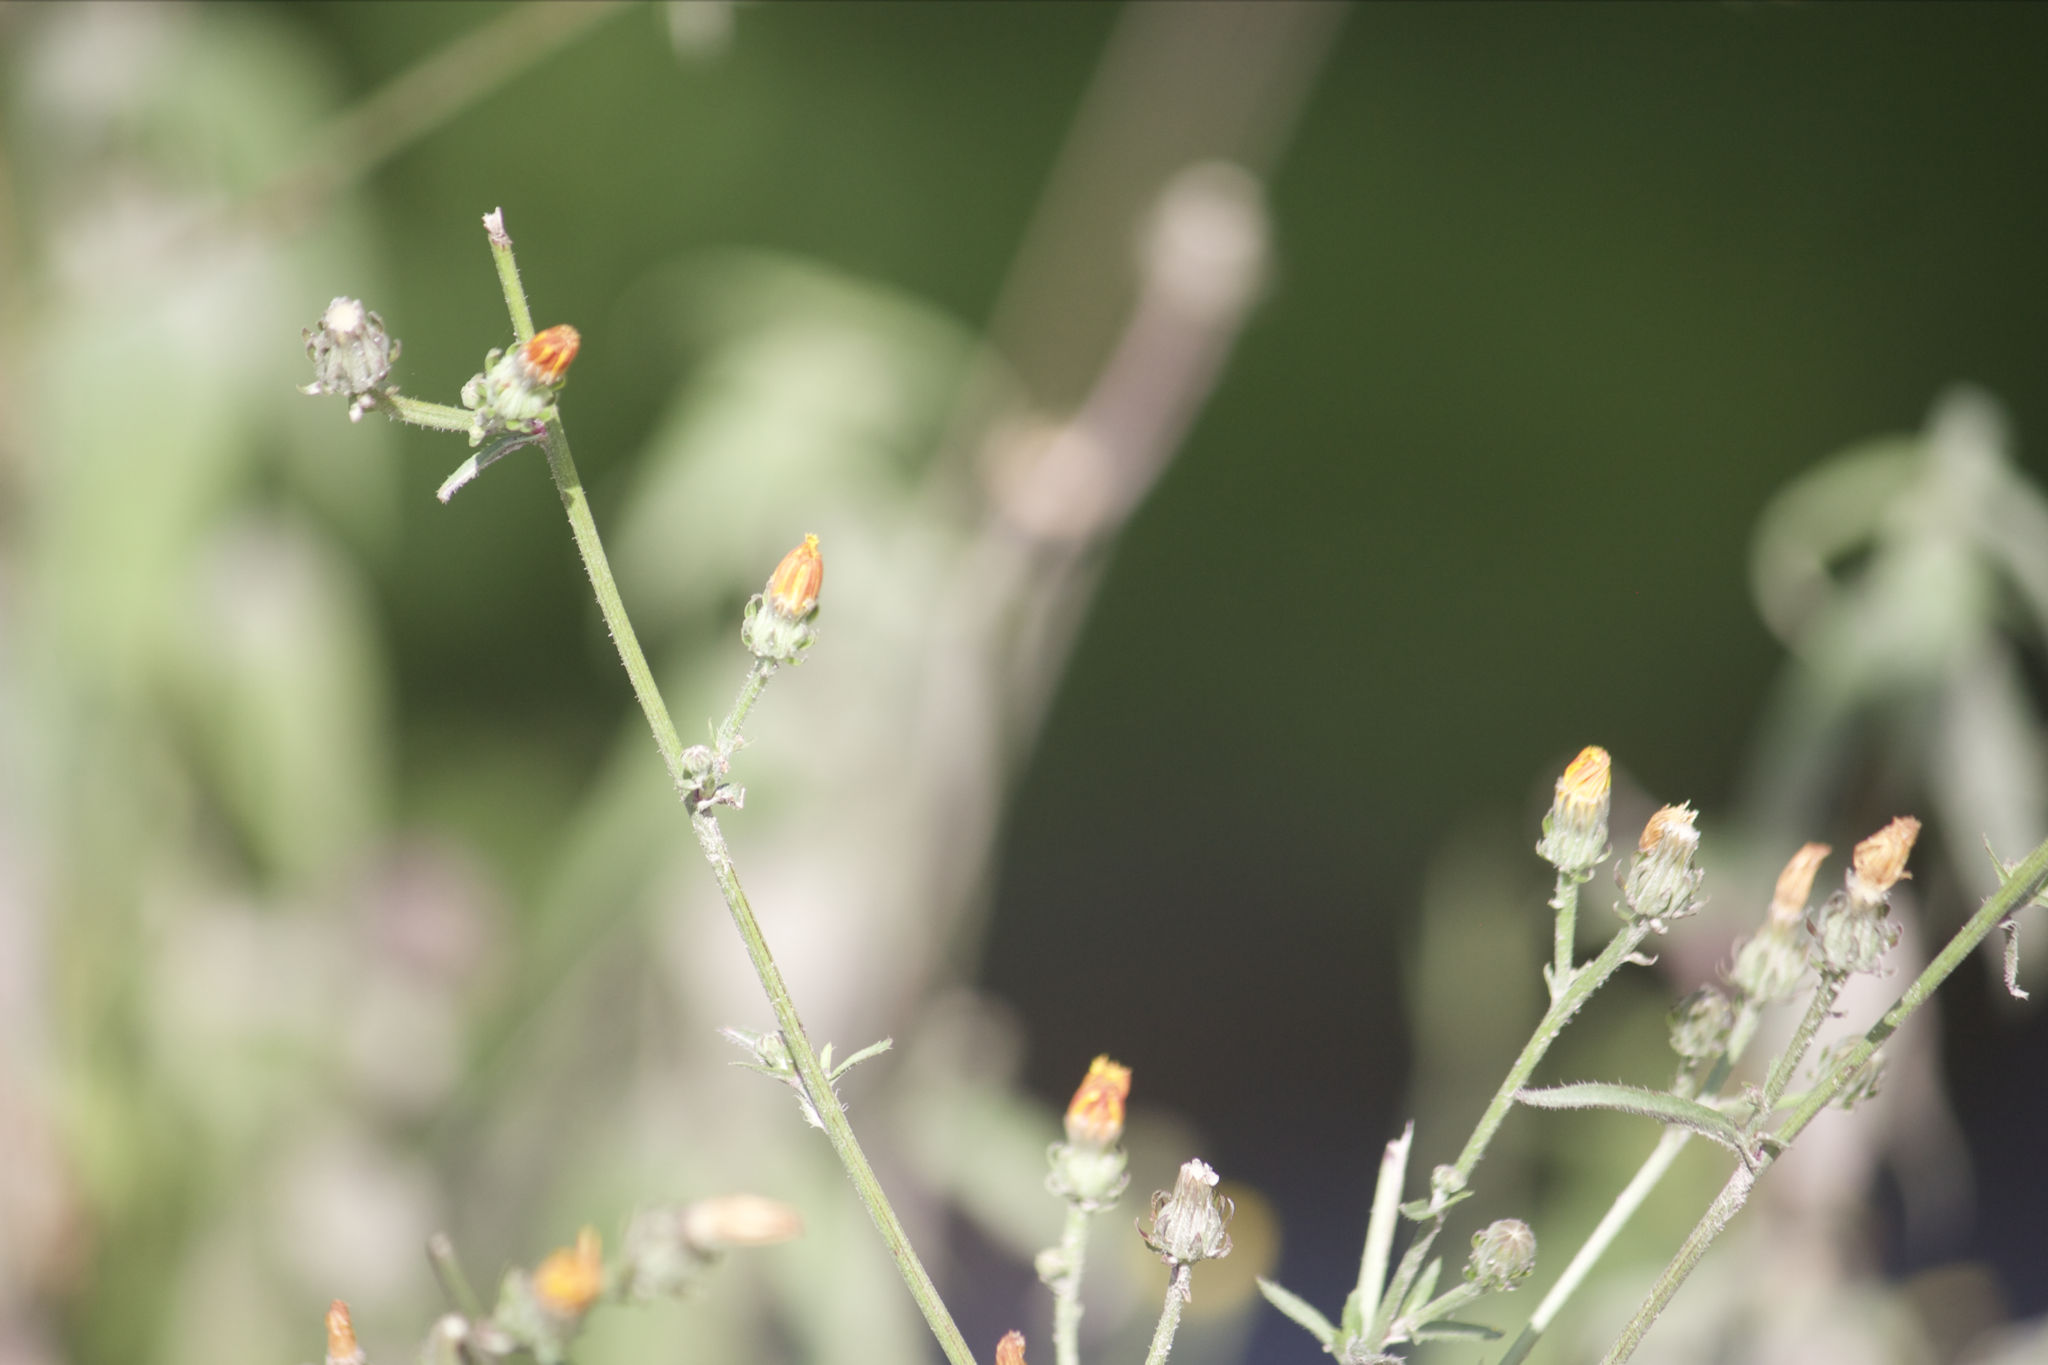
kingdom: Plantae
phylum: Tracheophyta
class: Magnoliopsida
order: Asterales
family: Asteraceae
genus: Picris
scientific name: Picris hieracioides
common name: Hawkweed oxtongue
